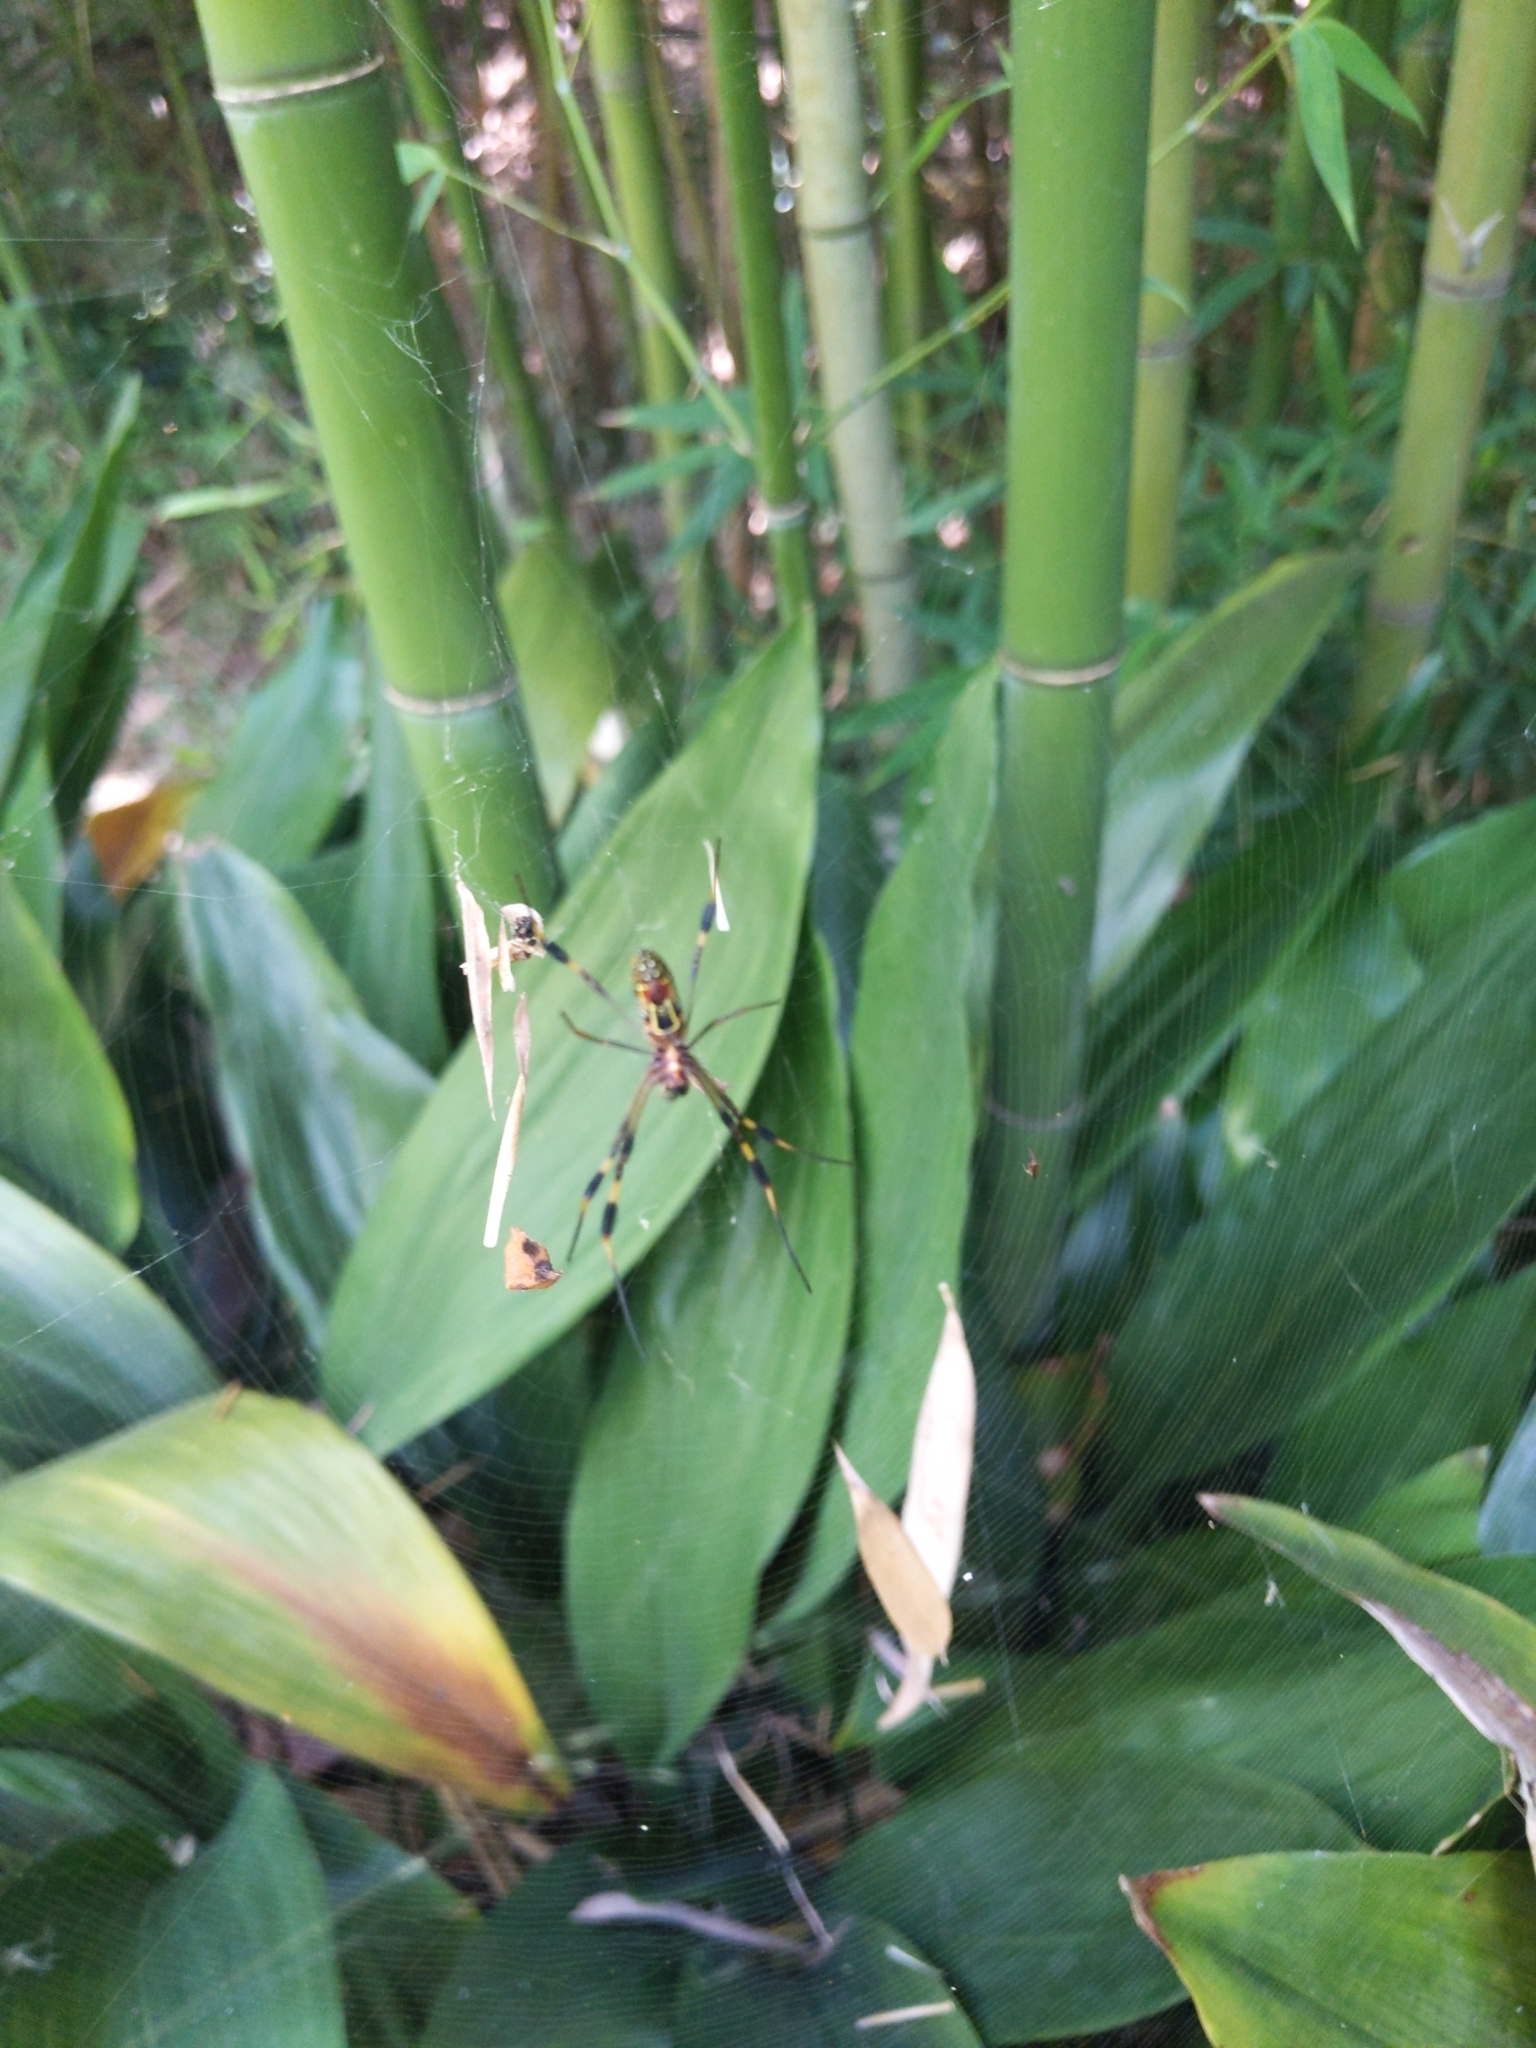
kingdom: Animalia
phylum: Arthropoda
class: Arachnida
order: Araneae
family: Araneidae
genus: Trichonephila
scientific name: Trichonephila clavipes
